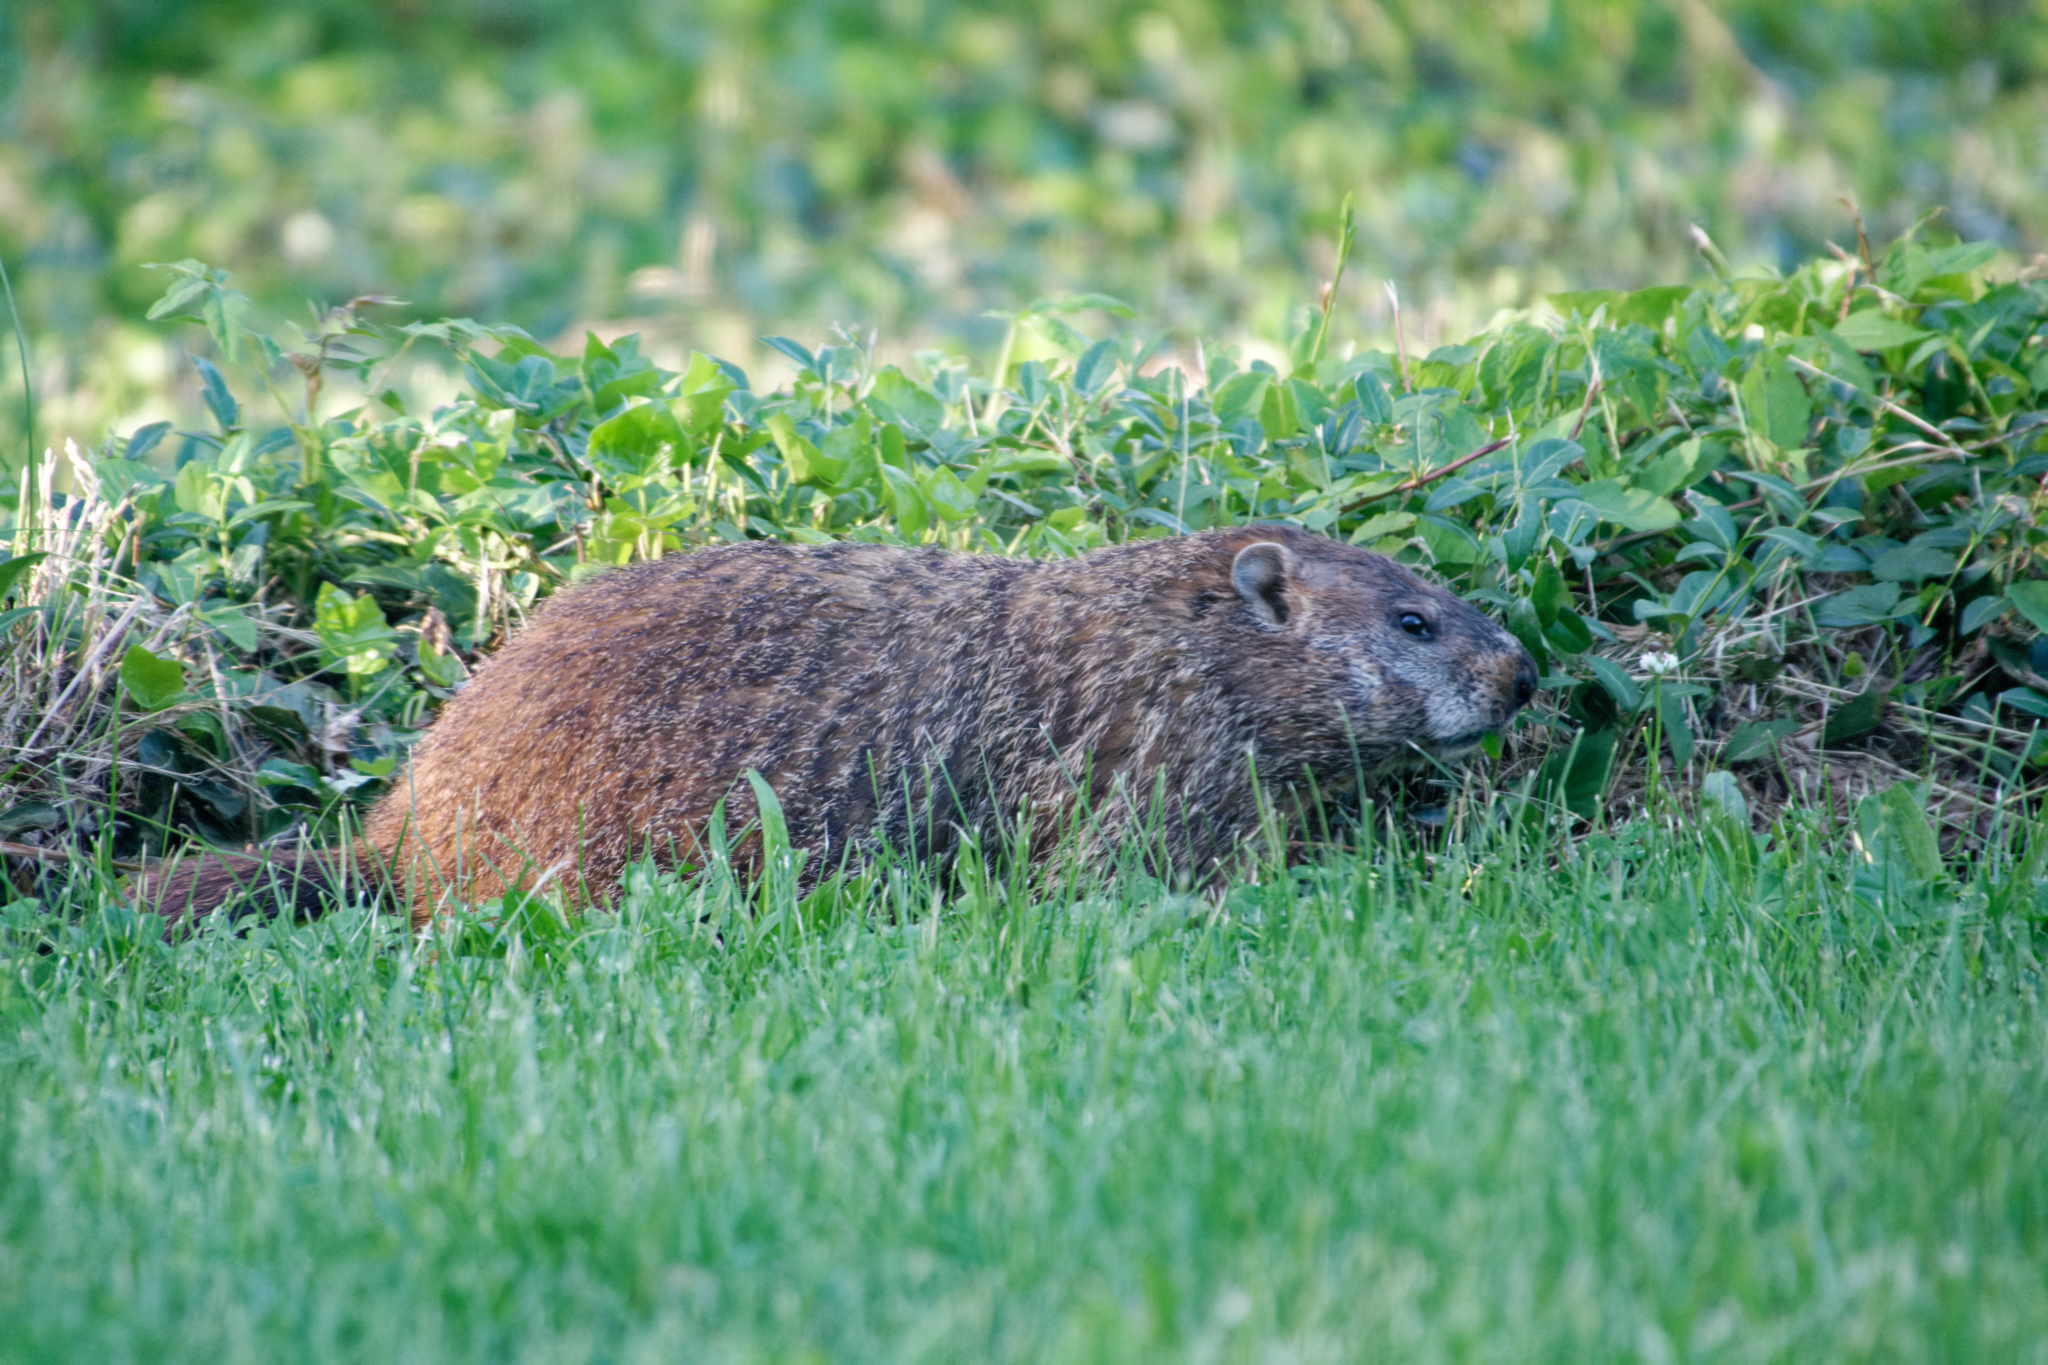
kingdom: Animalia
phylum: Chordata
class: Mammalia
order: Rodentia
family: Sciuridae
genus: Marmota
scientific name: Marmota monax
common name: Groundhog
